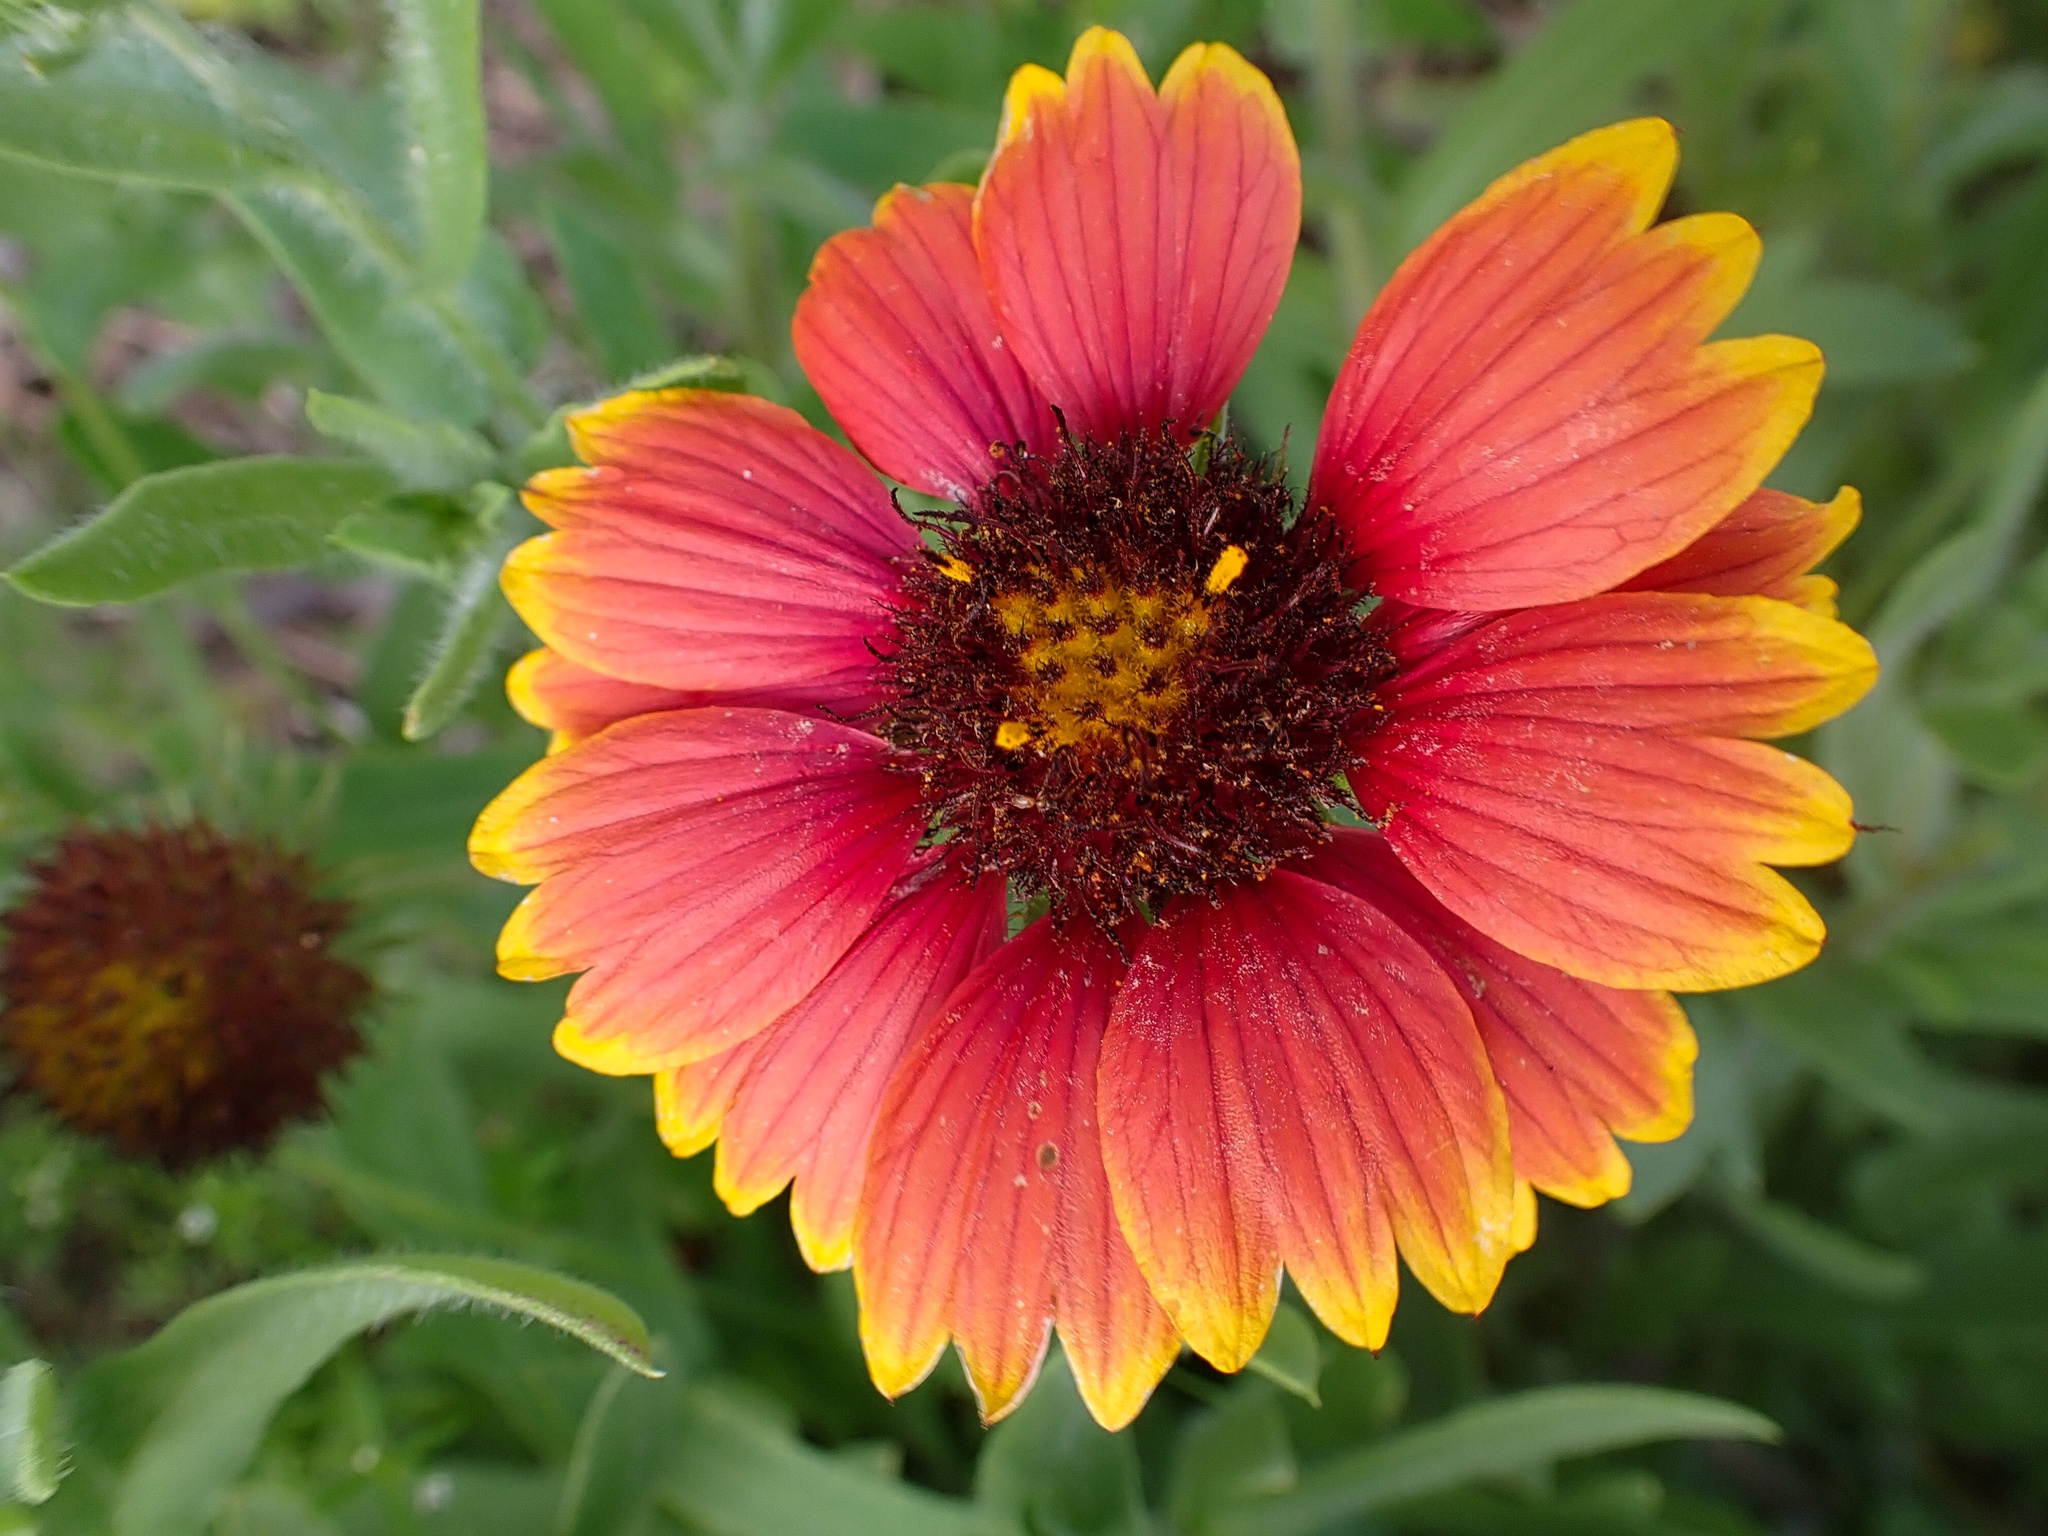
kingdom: Plantae
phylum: Tracheophyta
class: Magnoliopsida
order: Asterales
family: Asteraceae
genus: Gaillardia
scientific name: Gaillardia pulchella
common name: Firewheel
